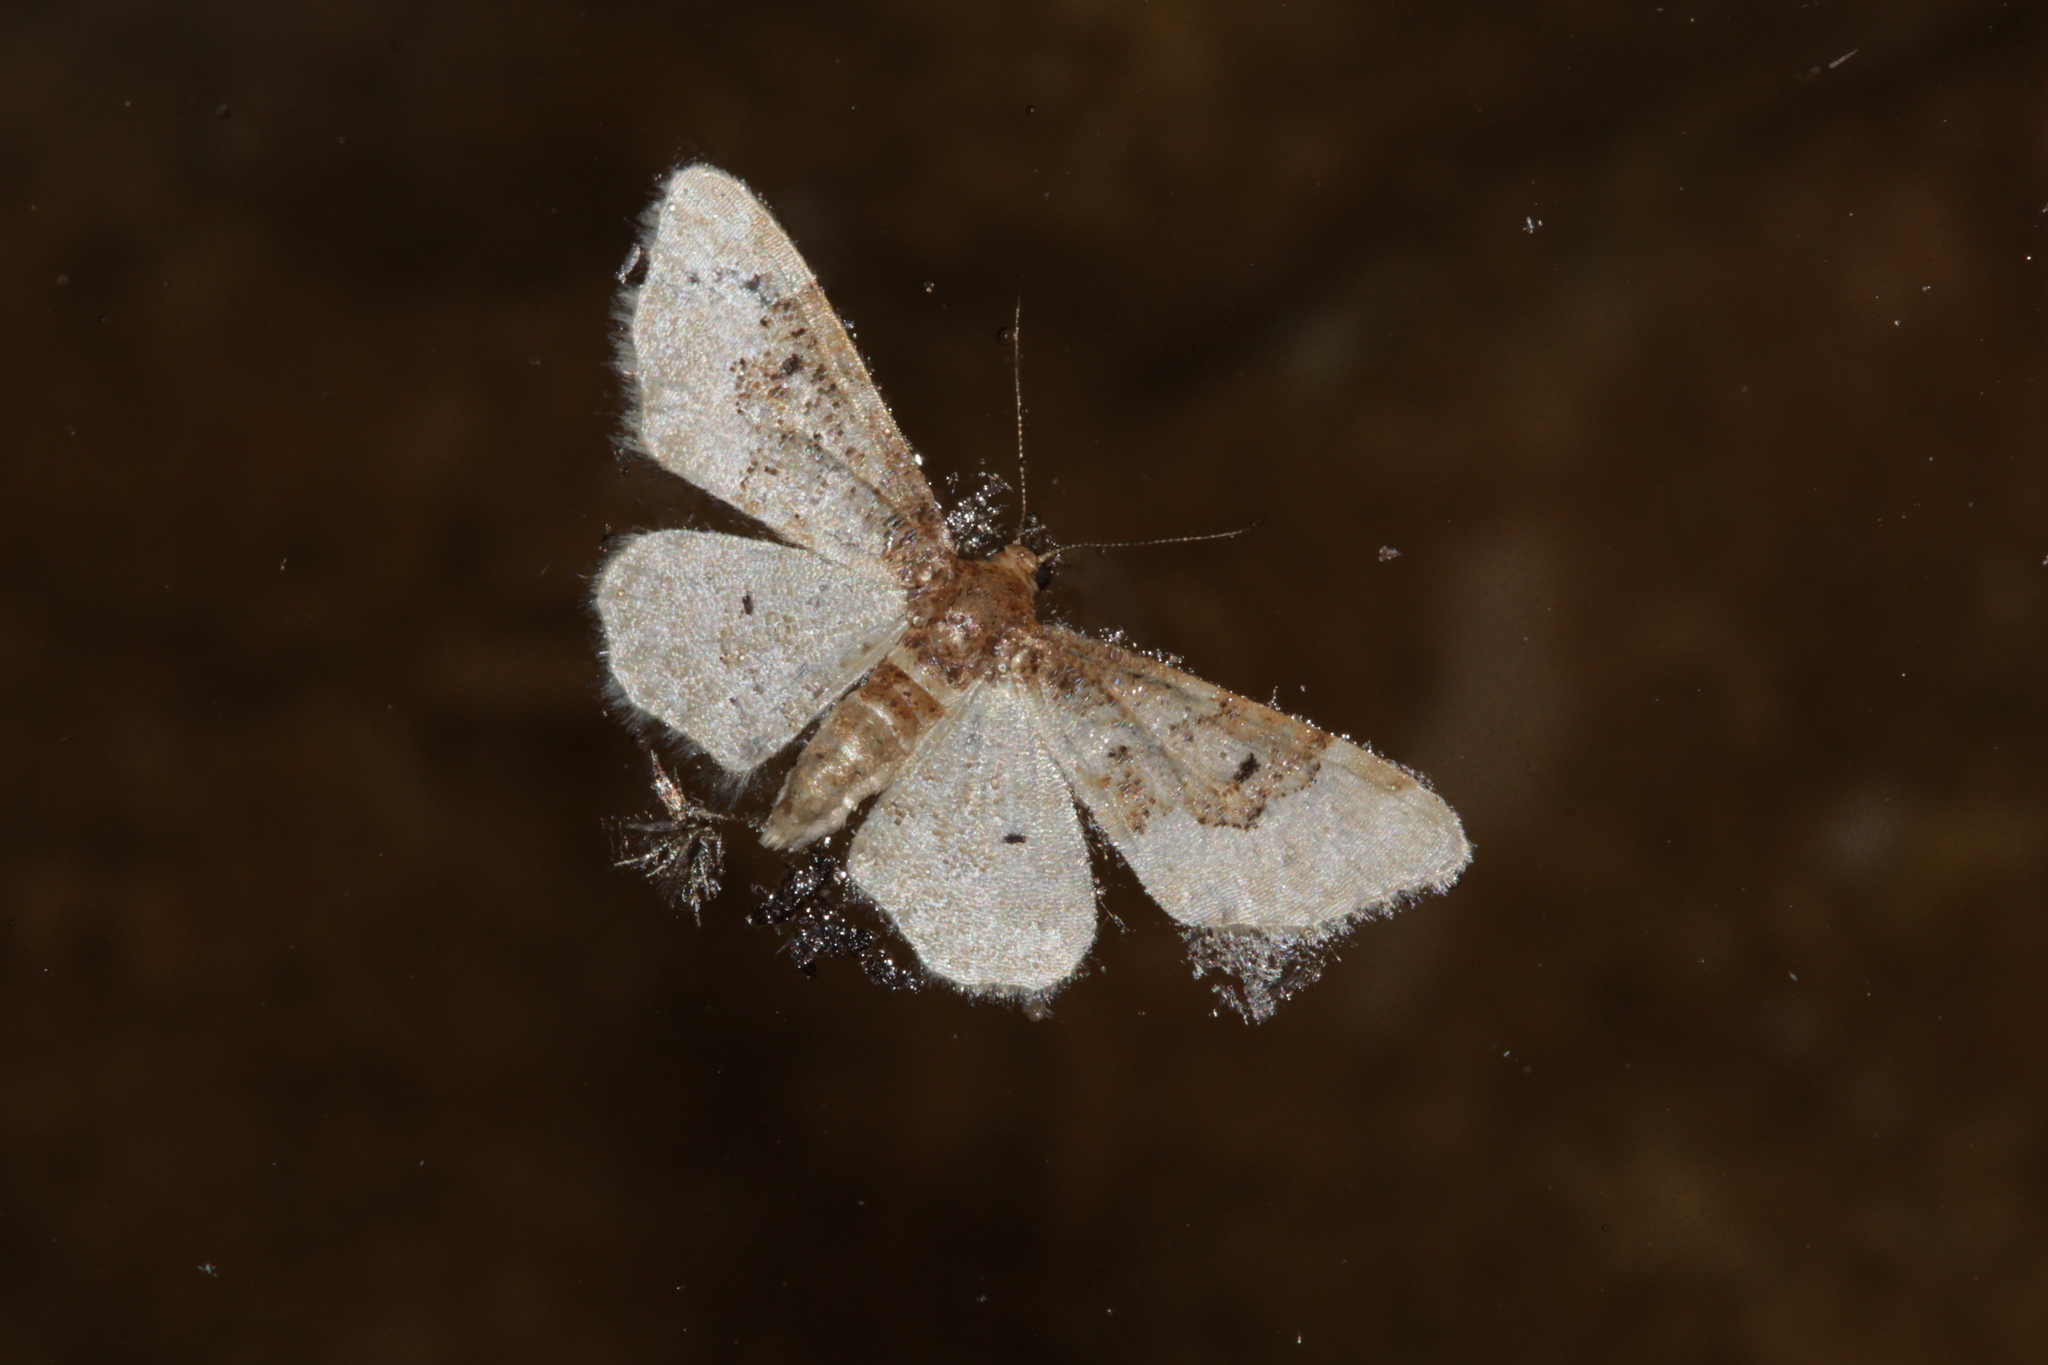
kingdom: Animalia
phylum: Arthropoda
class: Insecta
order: Lepidoptera
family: Geometridae
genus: Idaea
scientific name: Idaea rusticata
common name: Least carpet
